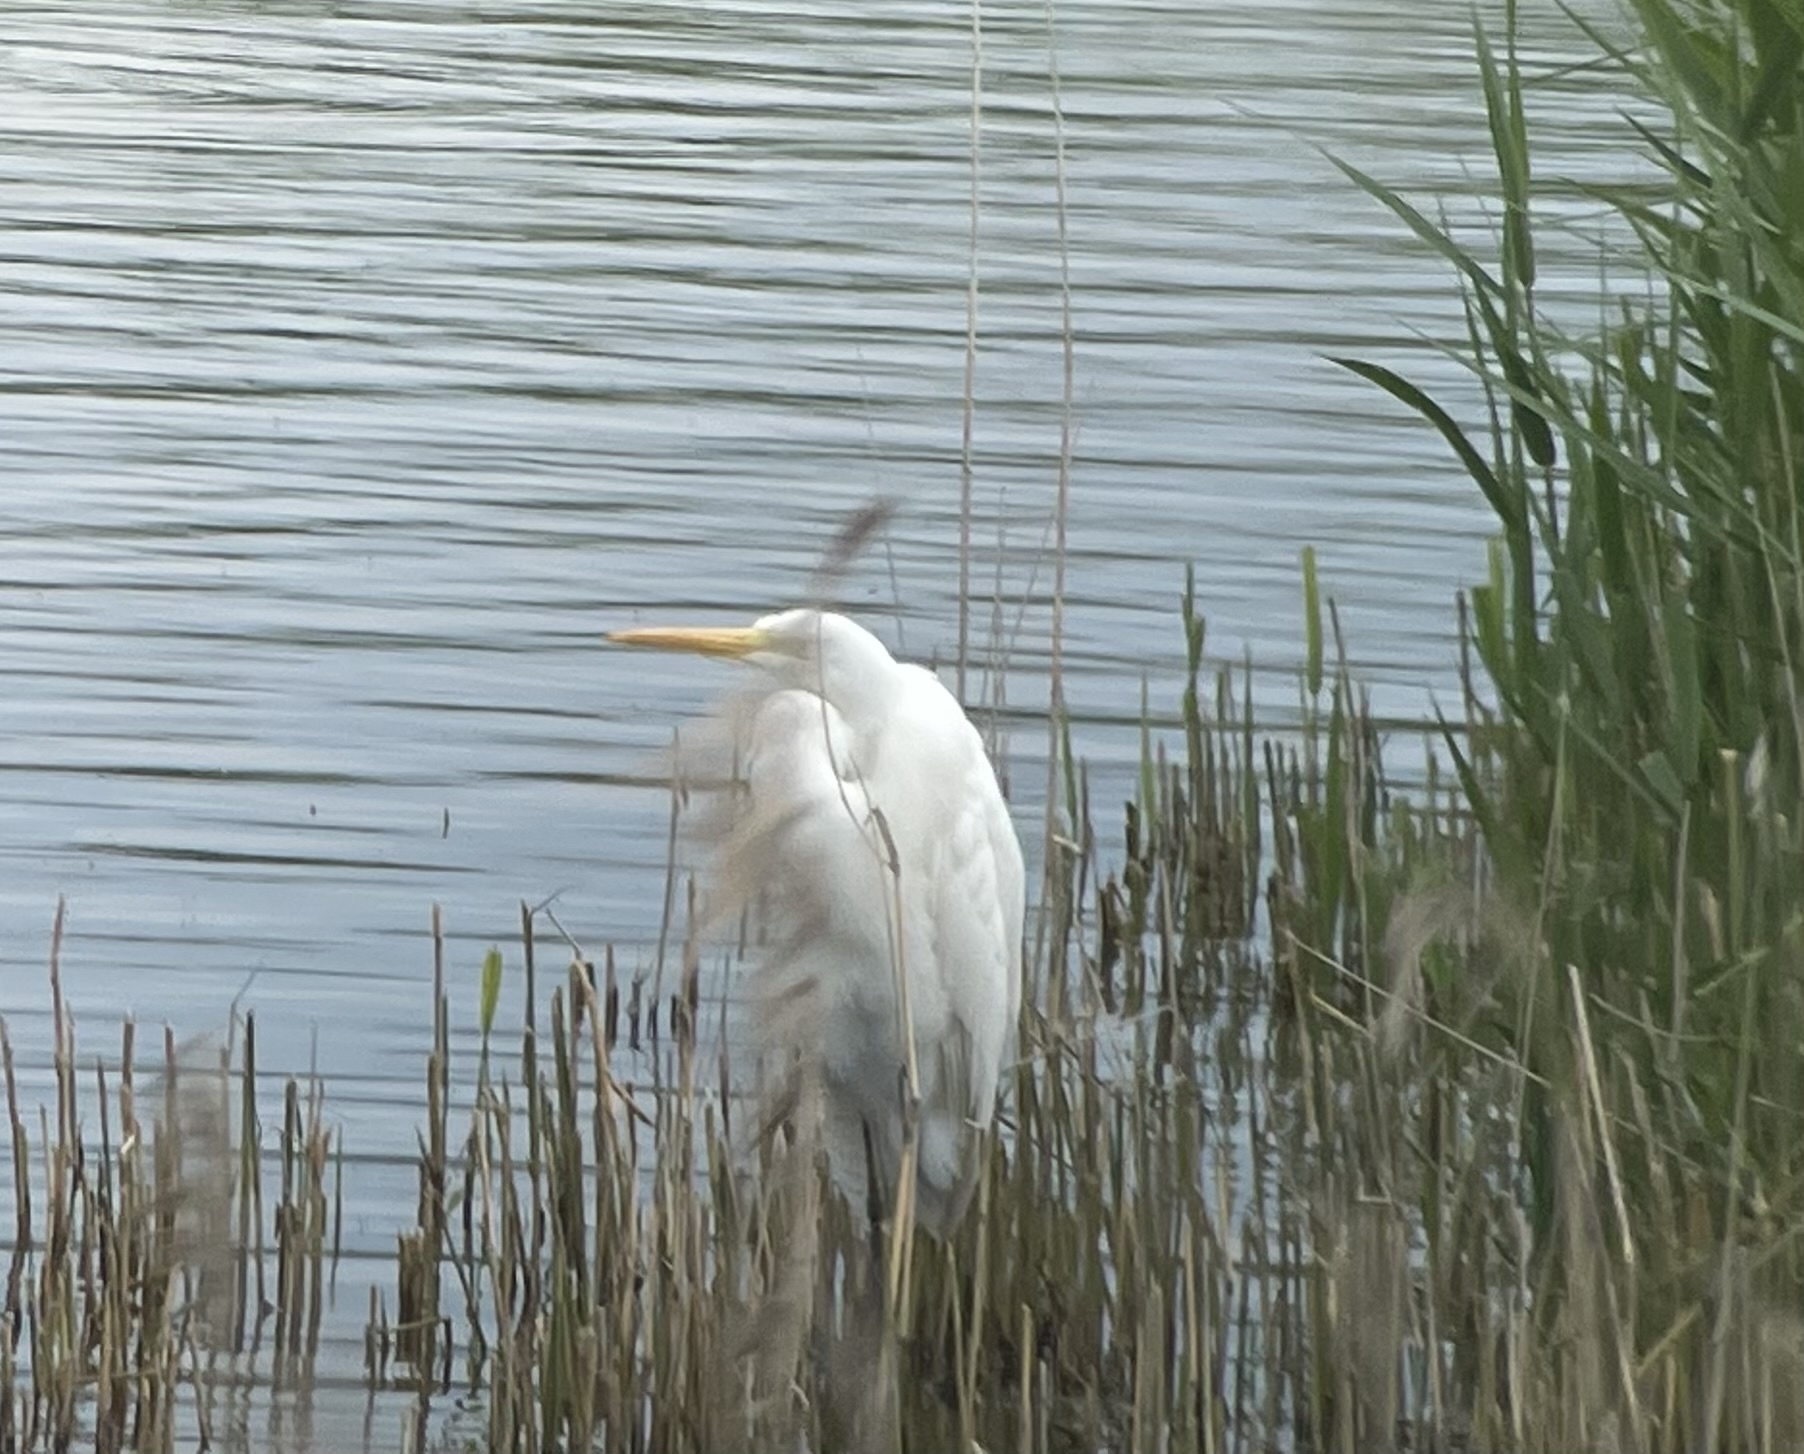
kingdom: Animalia
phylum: Chordata
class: Aves
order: Pelecaniformes
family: Ardeidae
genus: Ardea
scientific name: Ardea alba
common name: Great egret
